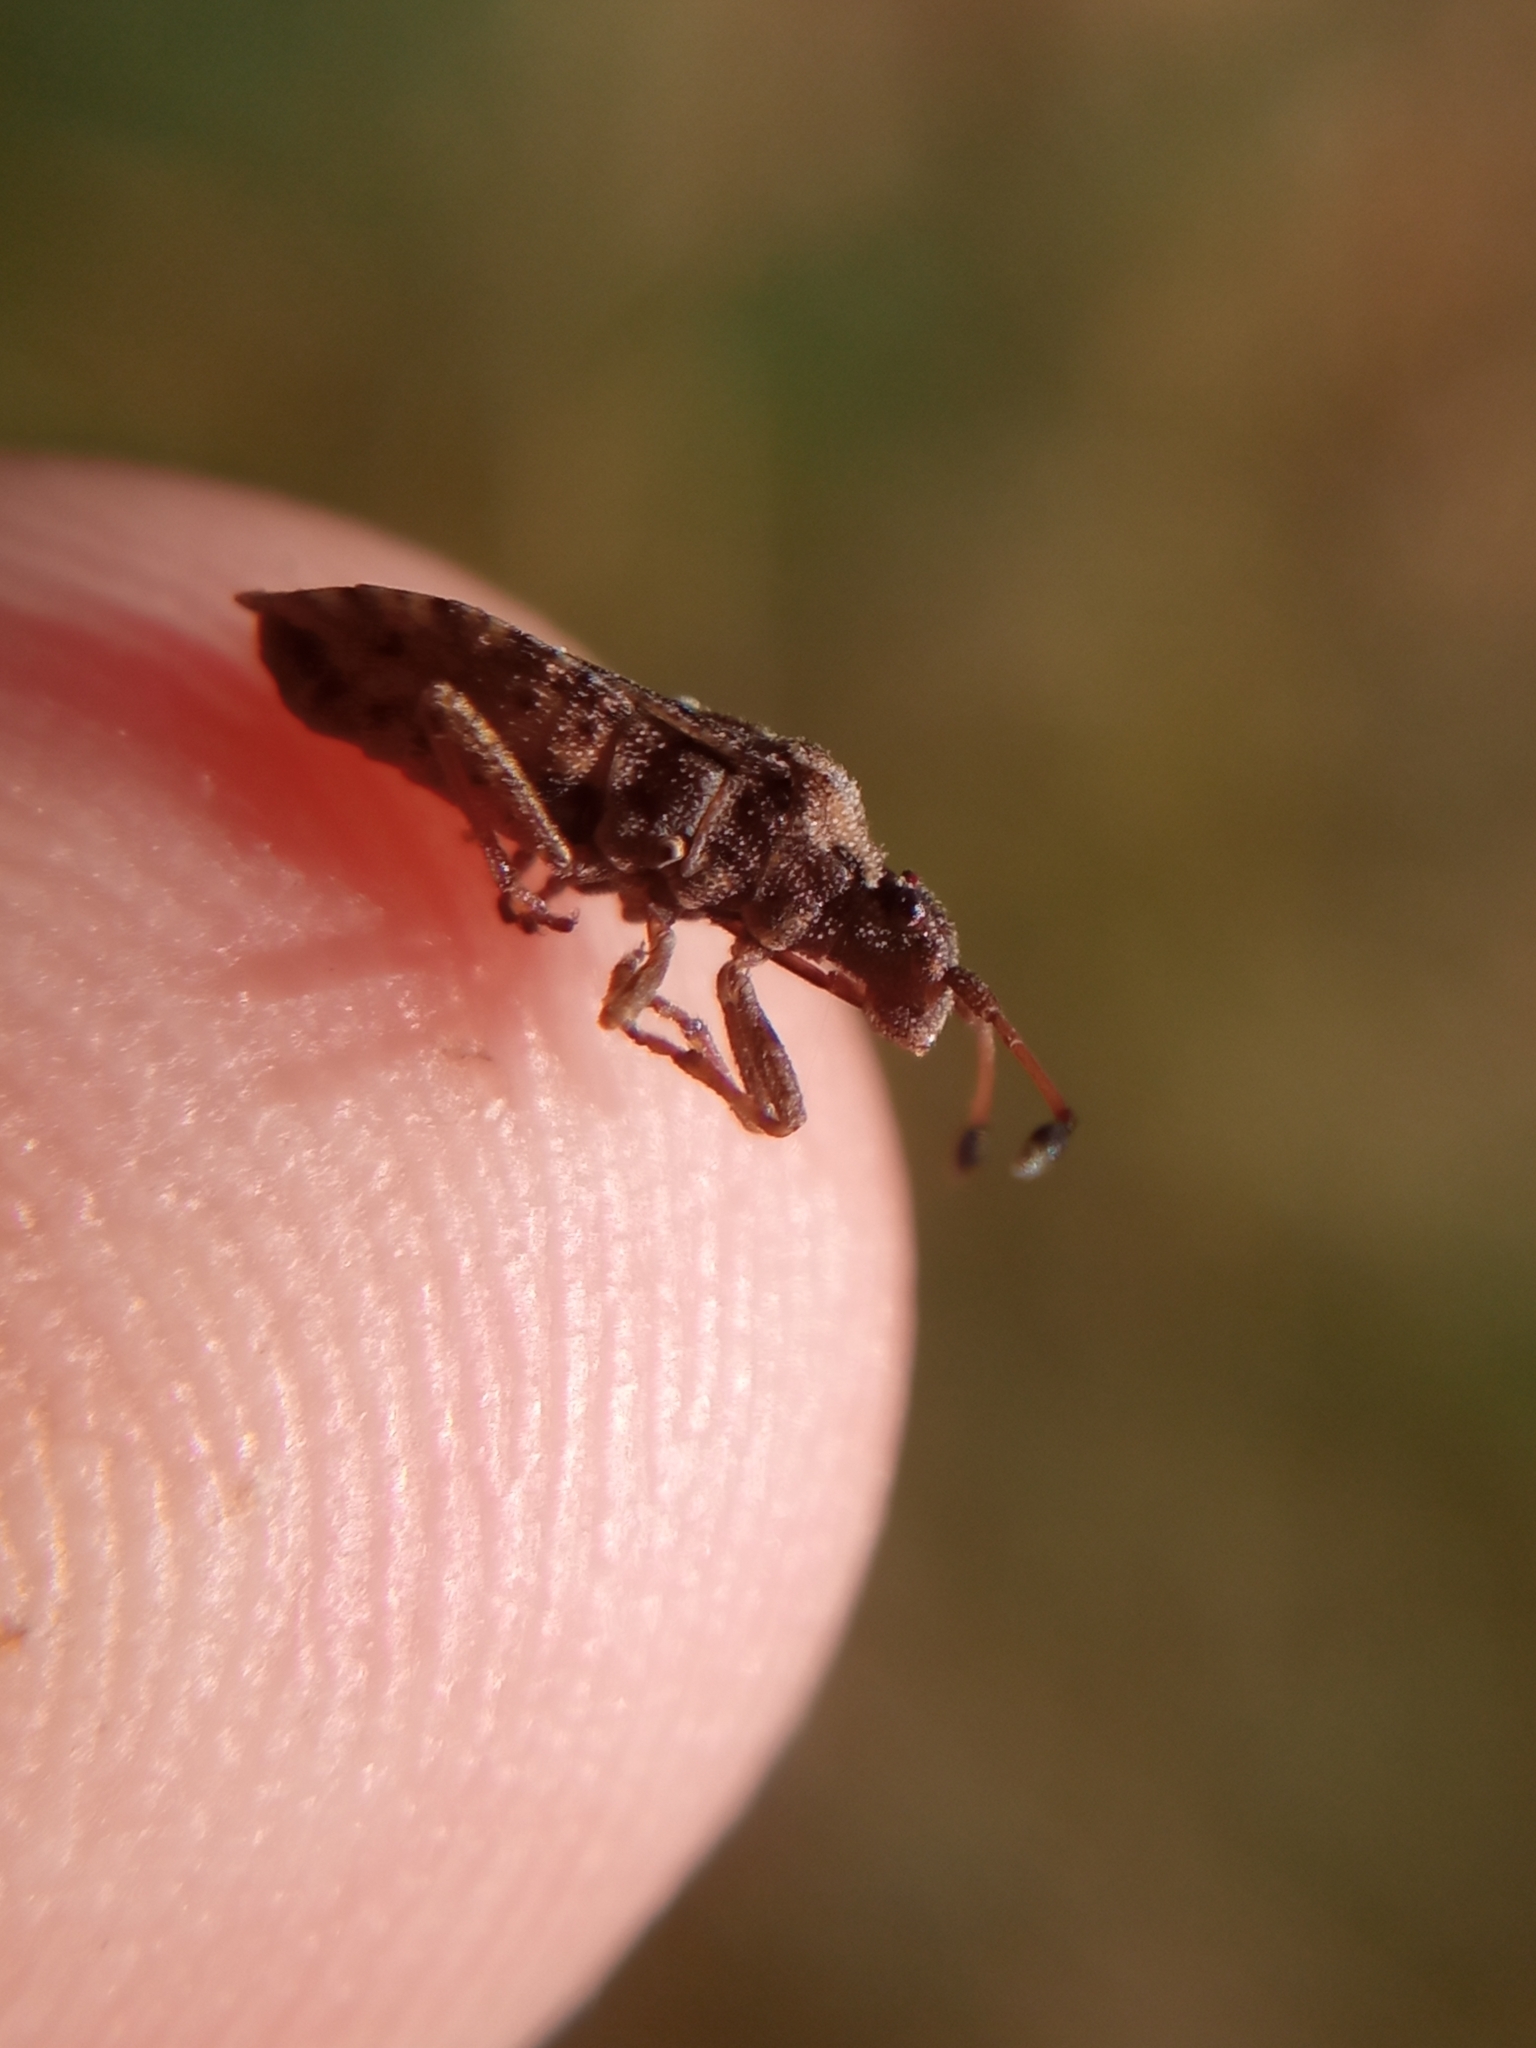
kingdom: Animalia
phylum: Arthropoda
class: Insecta
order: Hemiptera
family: Coreidae
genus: Bathysolen
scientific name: Bathysolen nubilus
